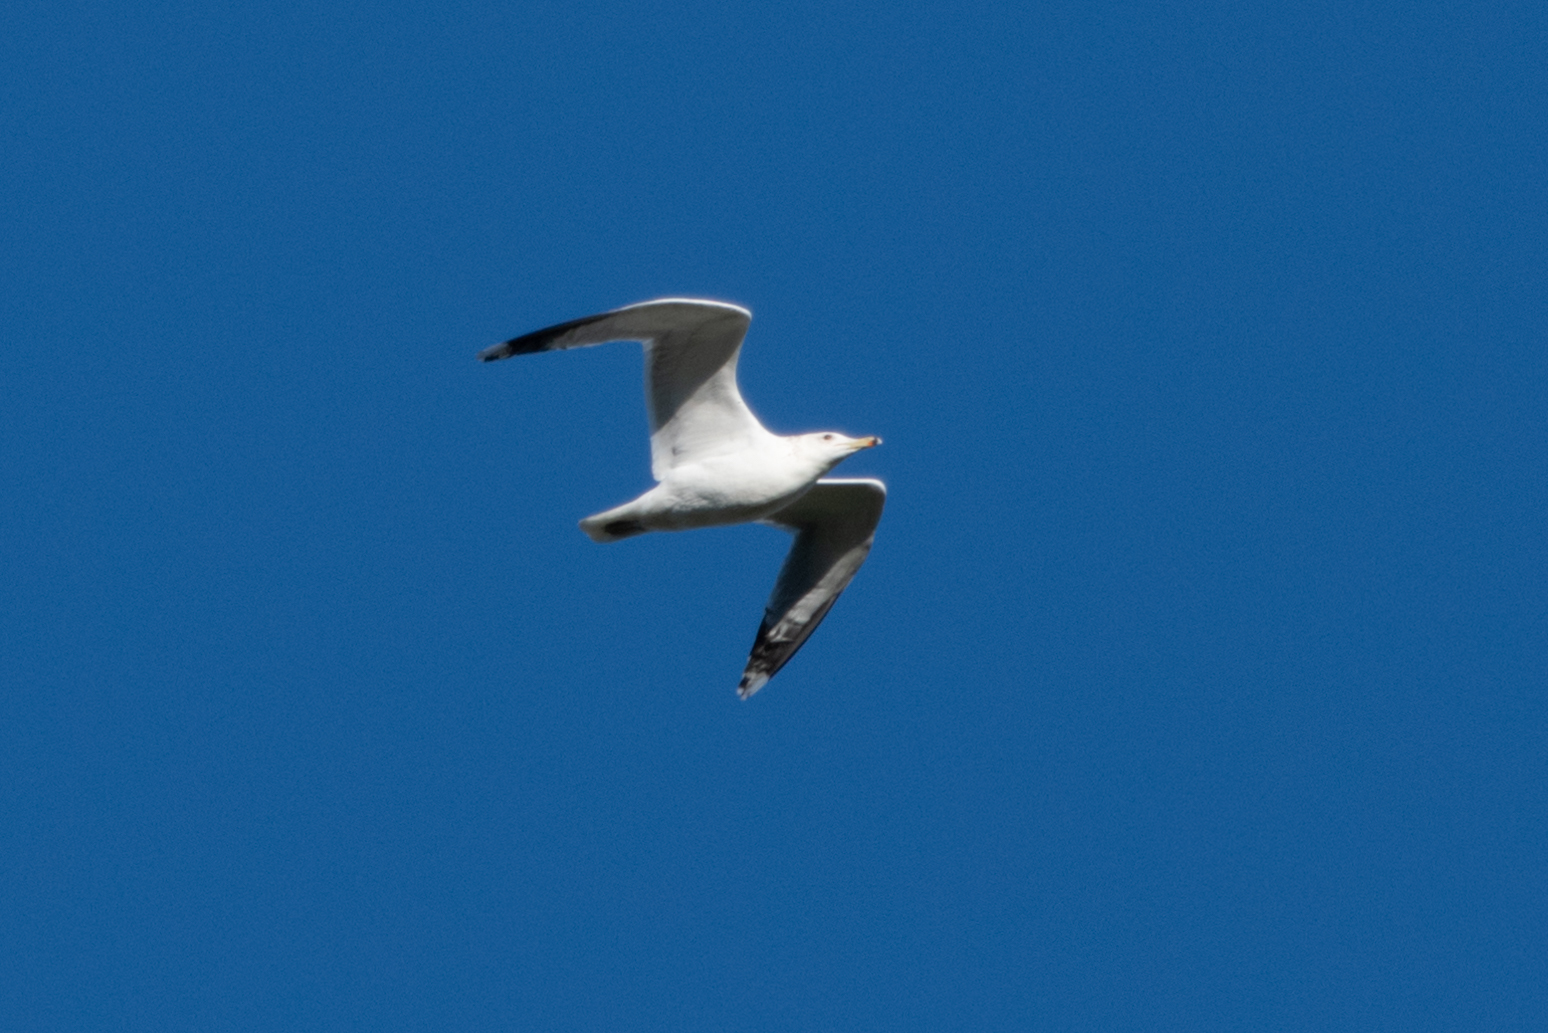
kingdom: Animalia
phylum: Chordata
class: Aves
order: Charadriiformes
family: Laridae
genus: Larus
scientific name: Larus californicus
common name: California gull
